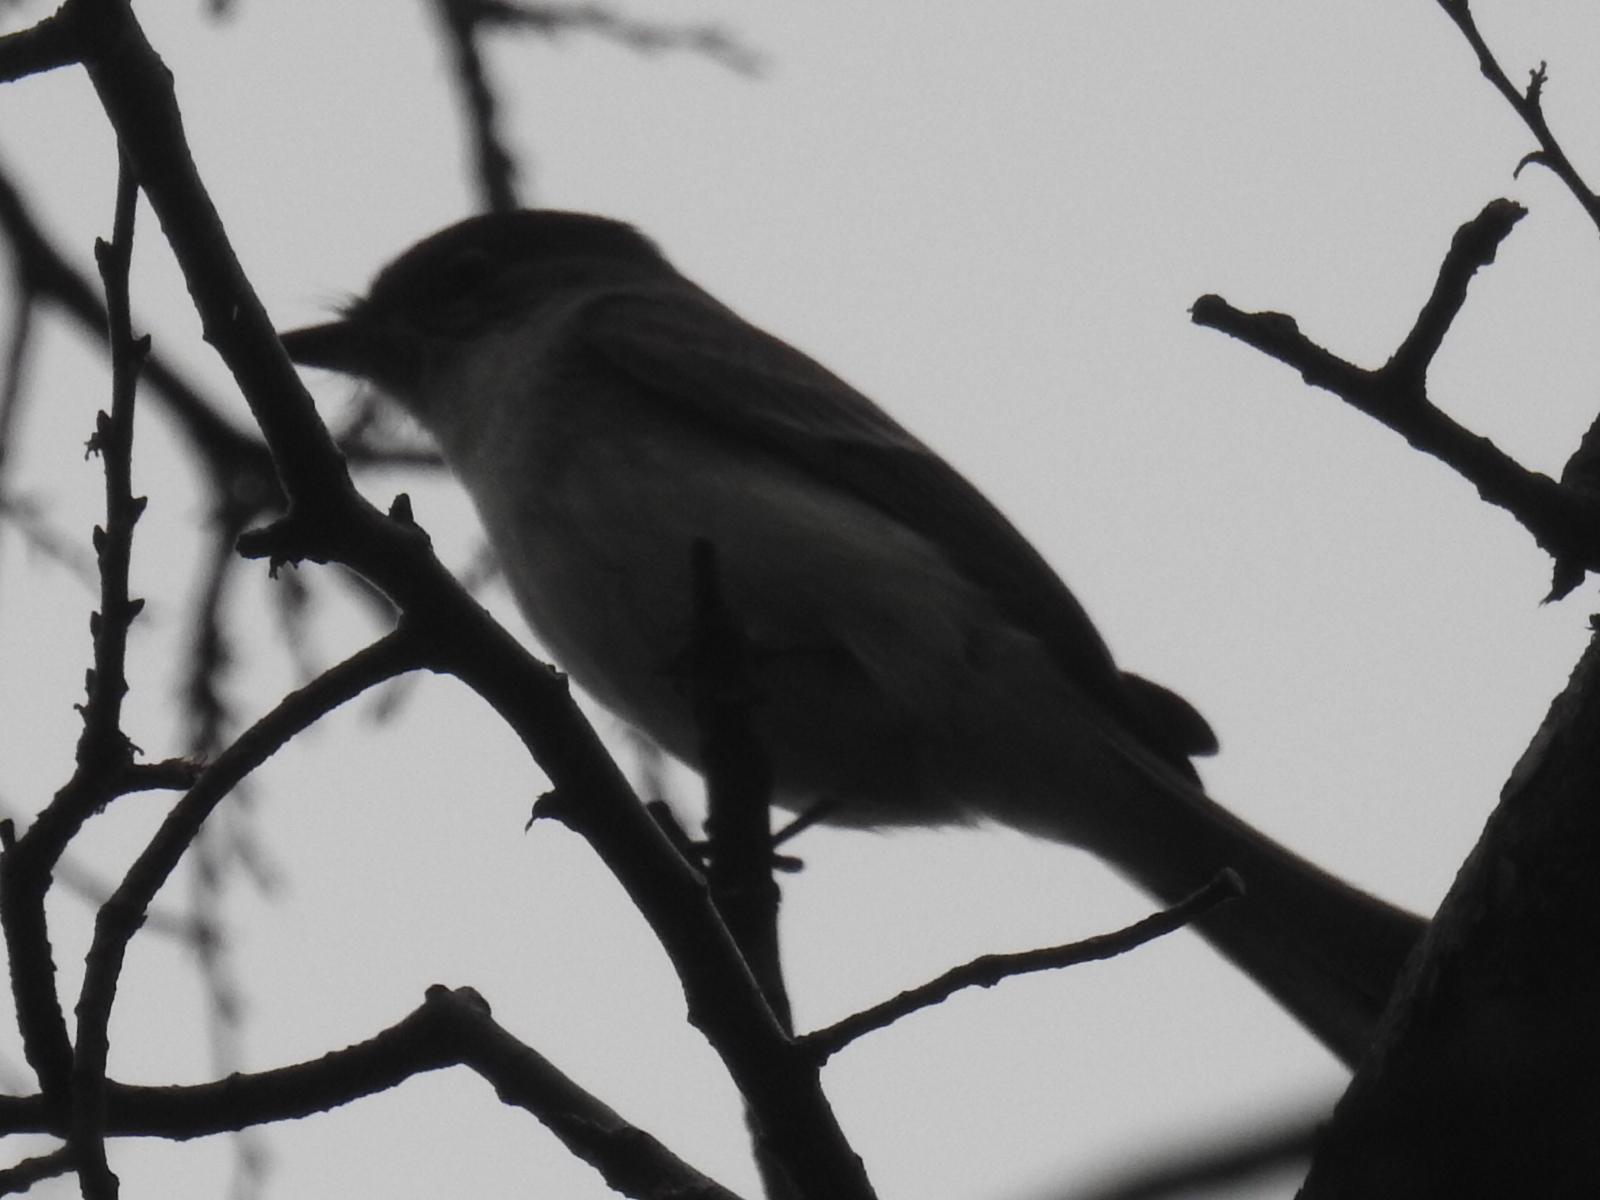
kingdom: Animalia
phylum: Chordata
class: Aves
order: Passeriformes
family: Tyrannidae
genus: Sayornis
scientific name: Sayornis phoebe
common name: Eastern phoebe
